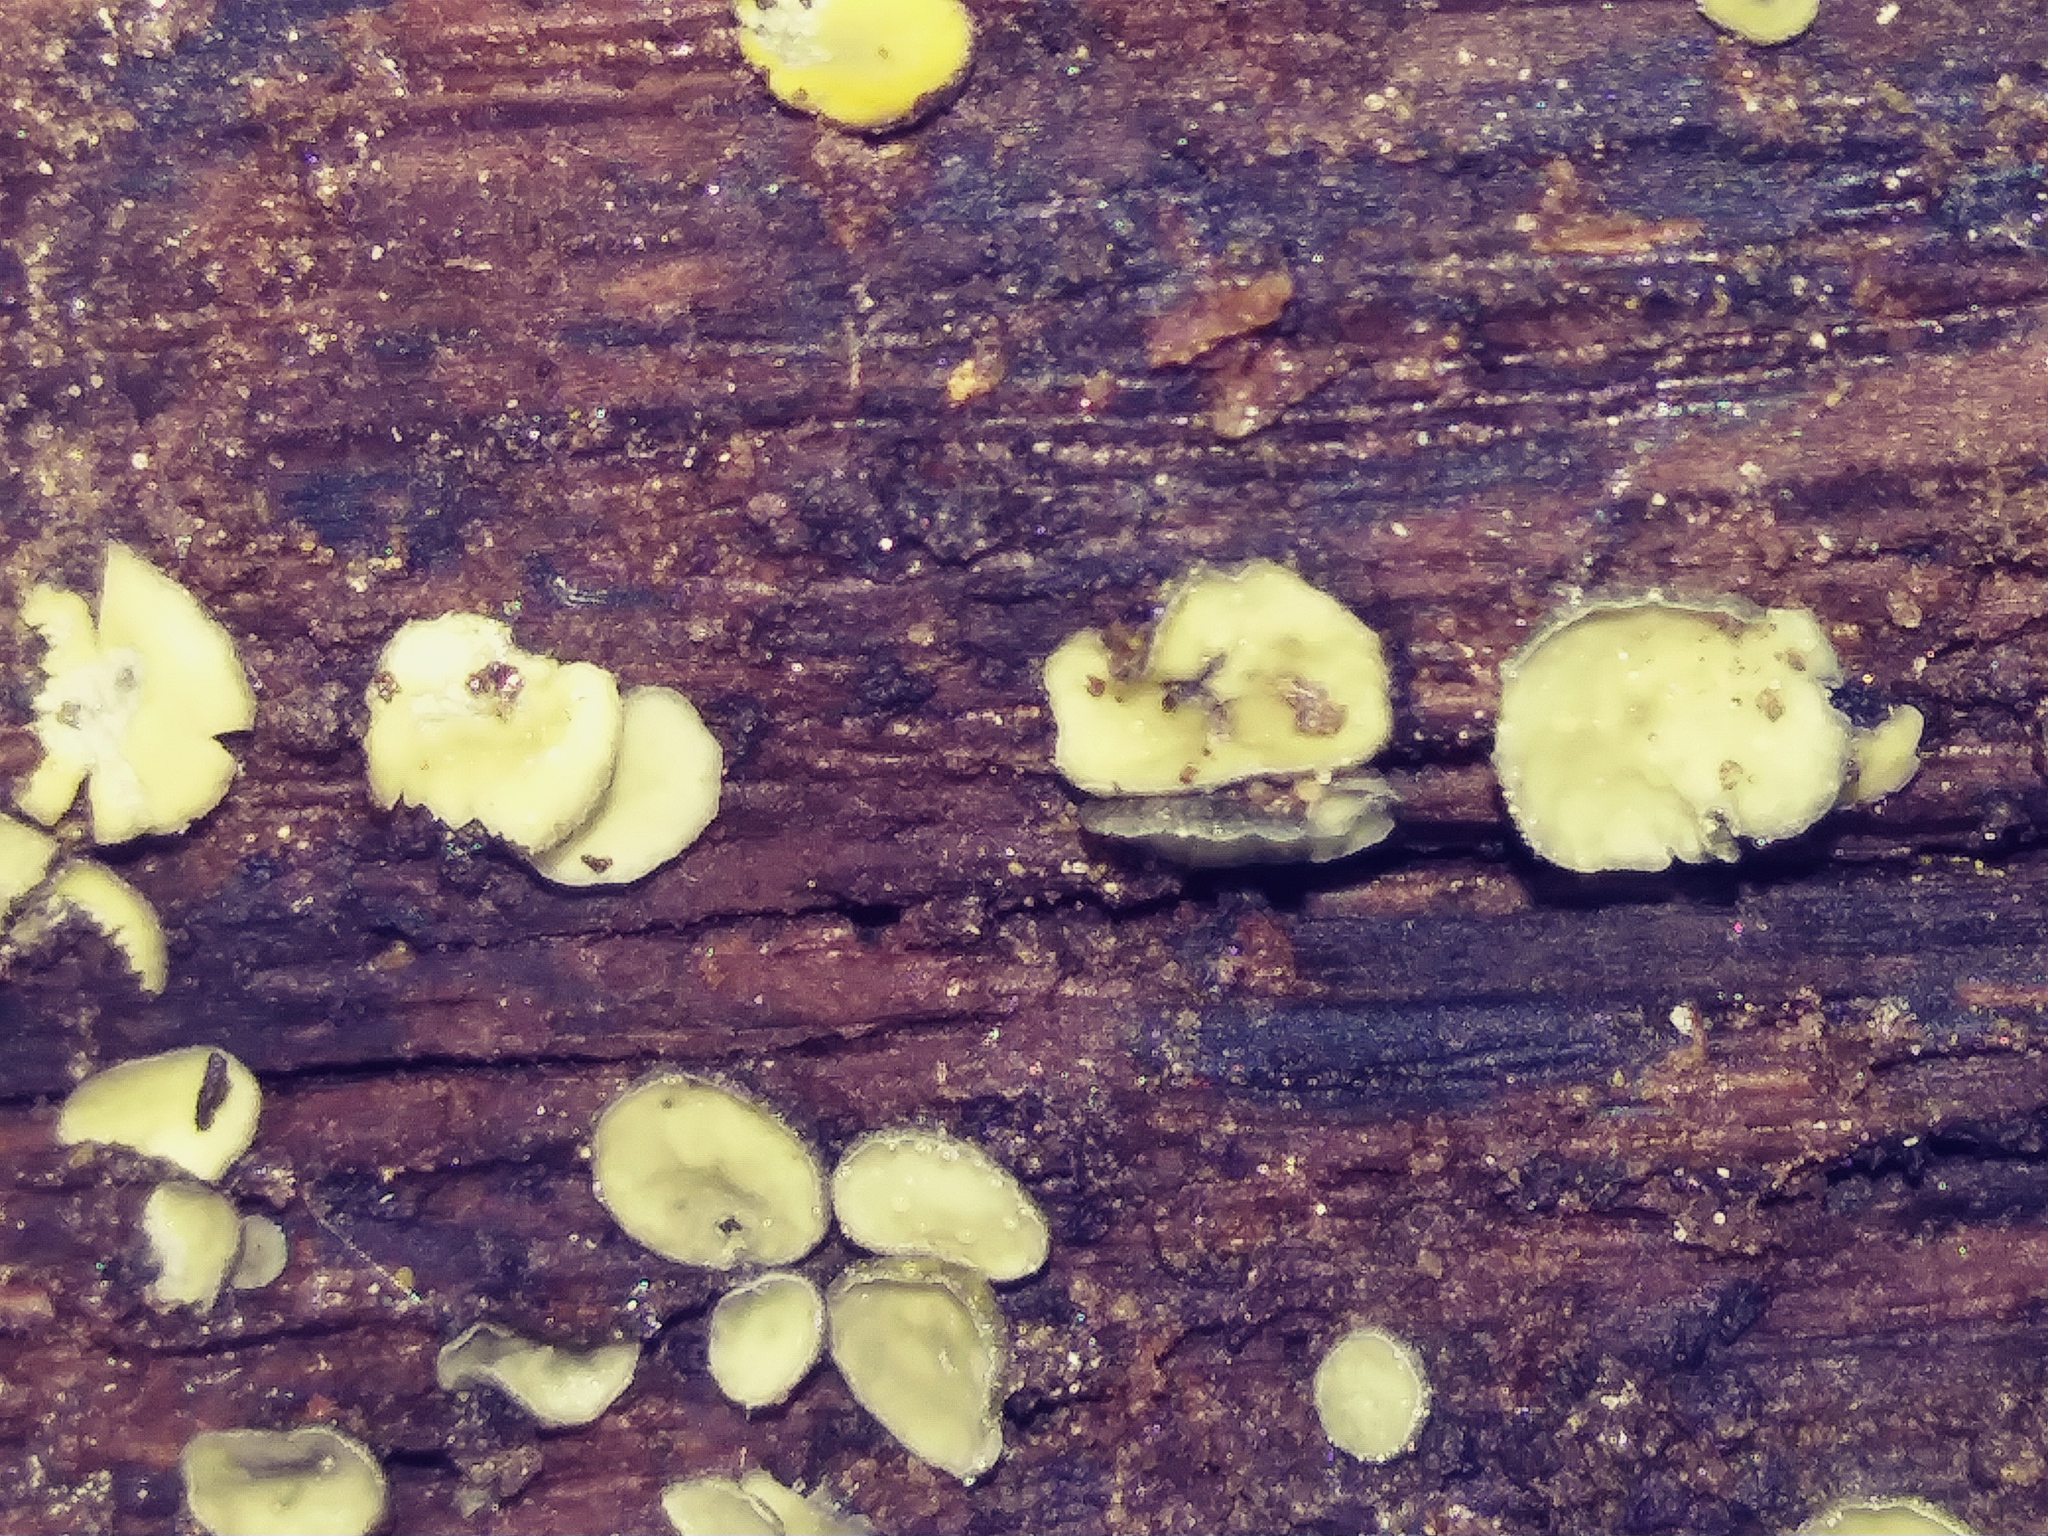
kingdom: Fungi
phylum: Ascomycota
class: Leotiomycetes
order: Helotiales
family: Chlorospleniaceae
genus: Chlorosplenium
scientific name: Chlorosplenium chlora
